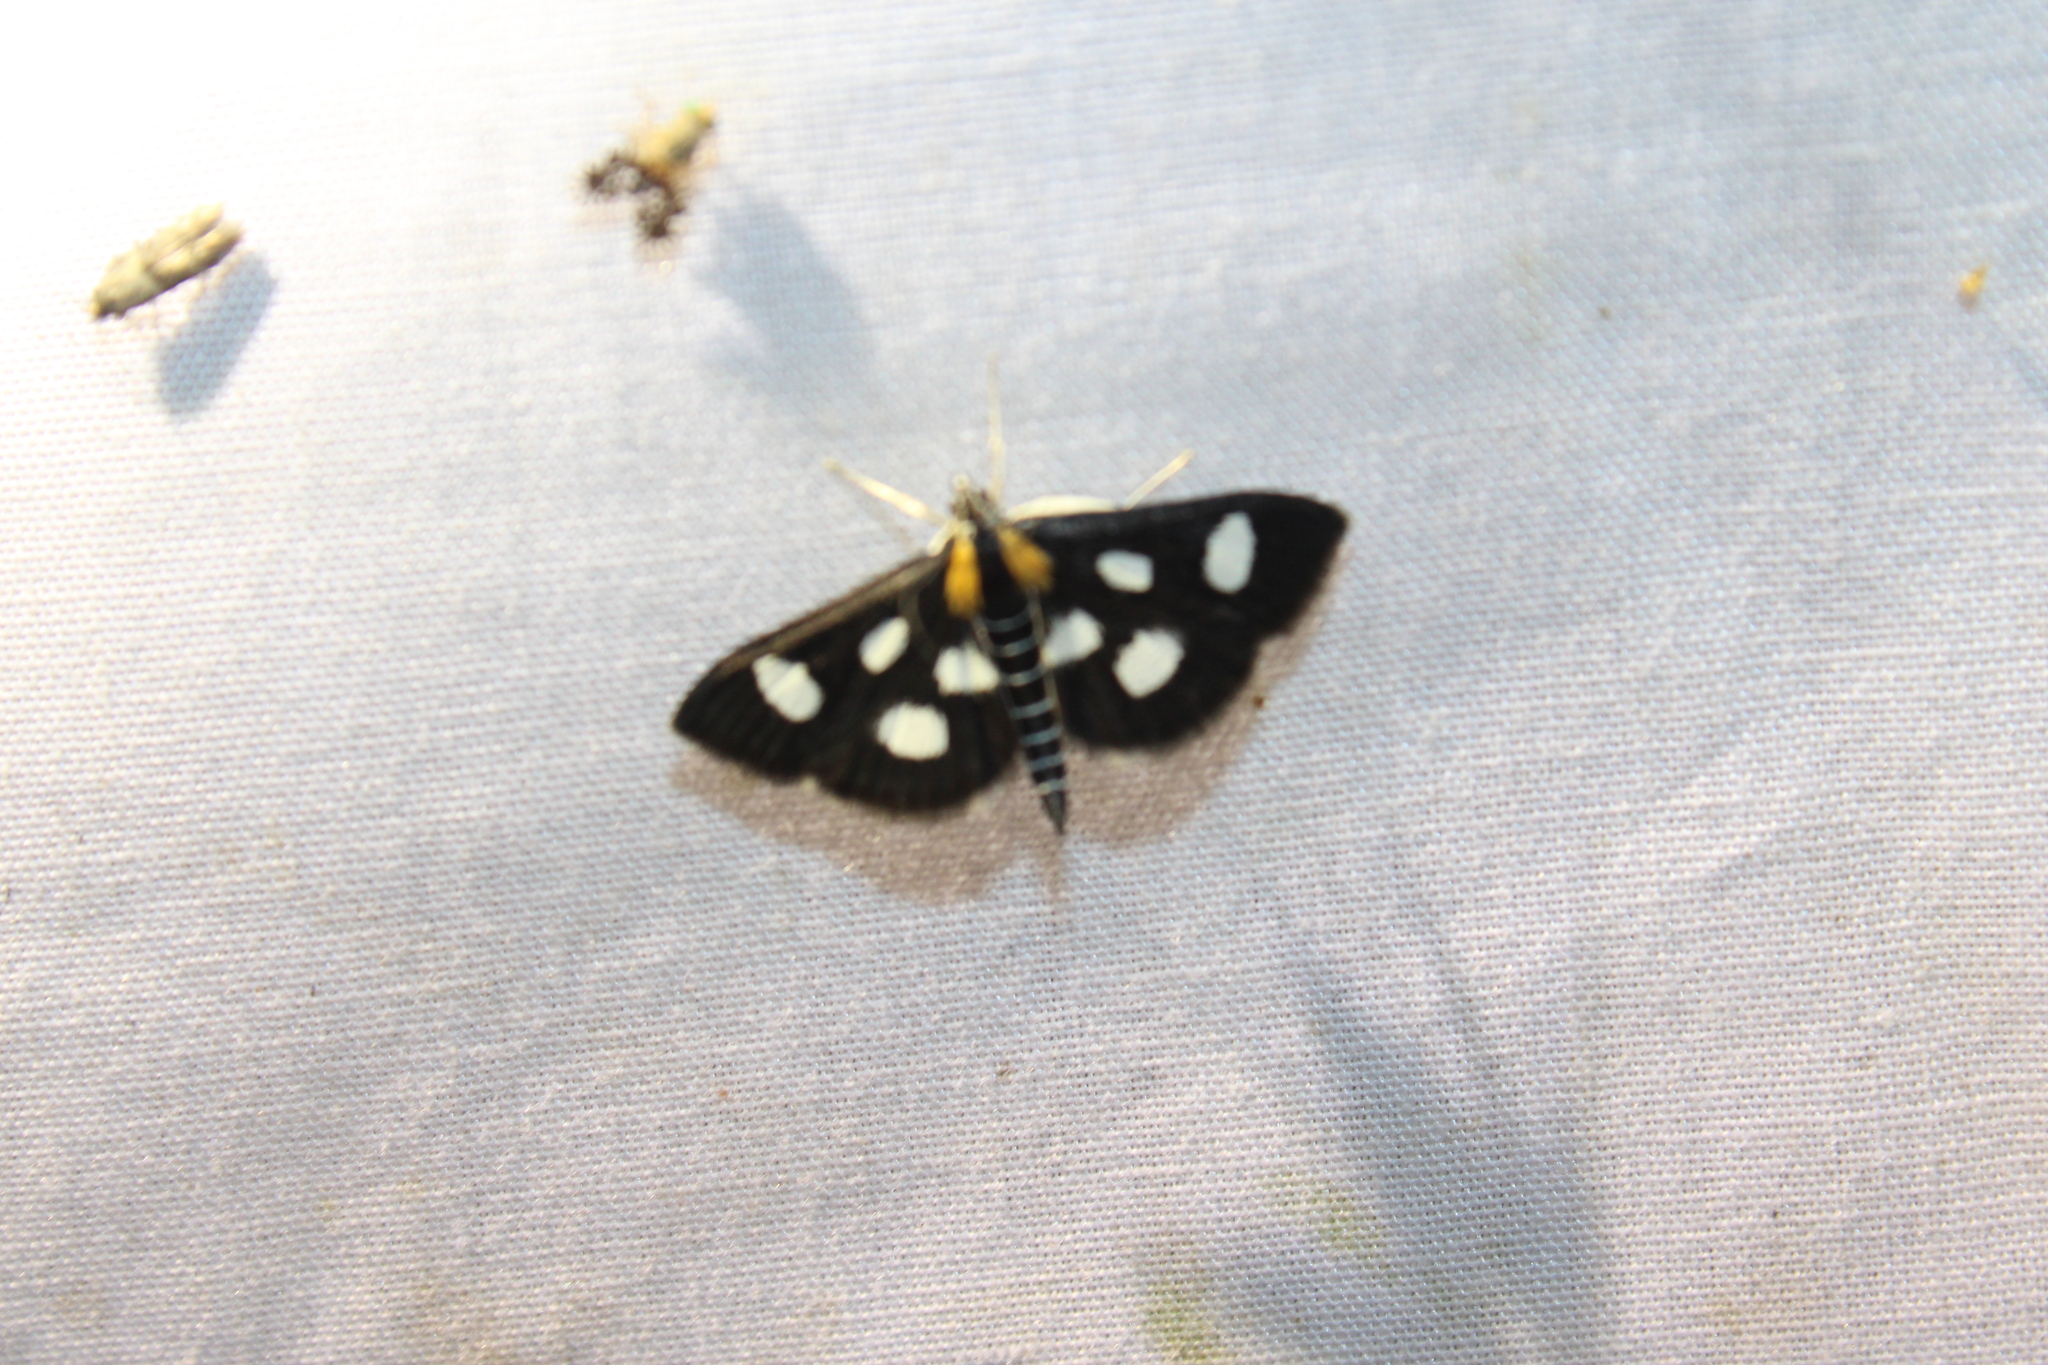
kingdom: Animalia
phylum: Arthropoda
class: Insecta
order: Lepidoptera
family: Crambidae
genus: Anania
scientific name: Anania funebris
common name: White-spotted sable moth
